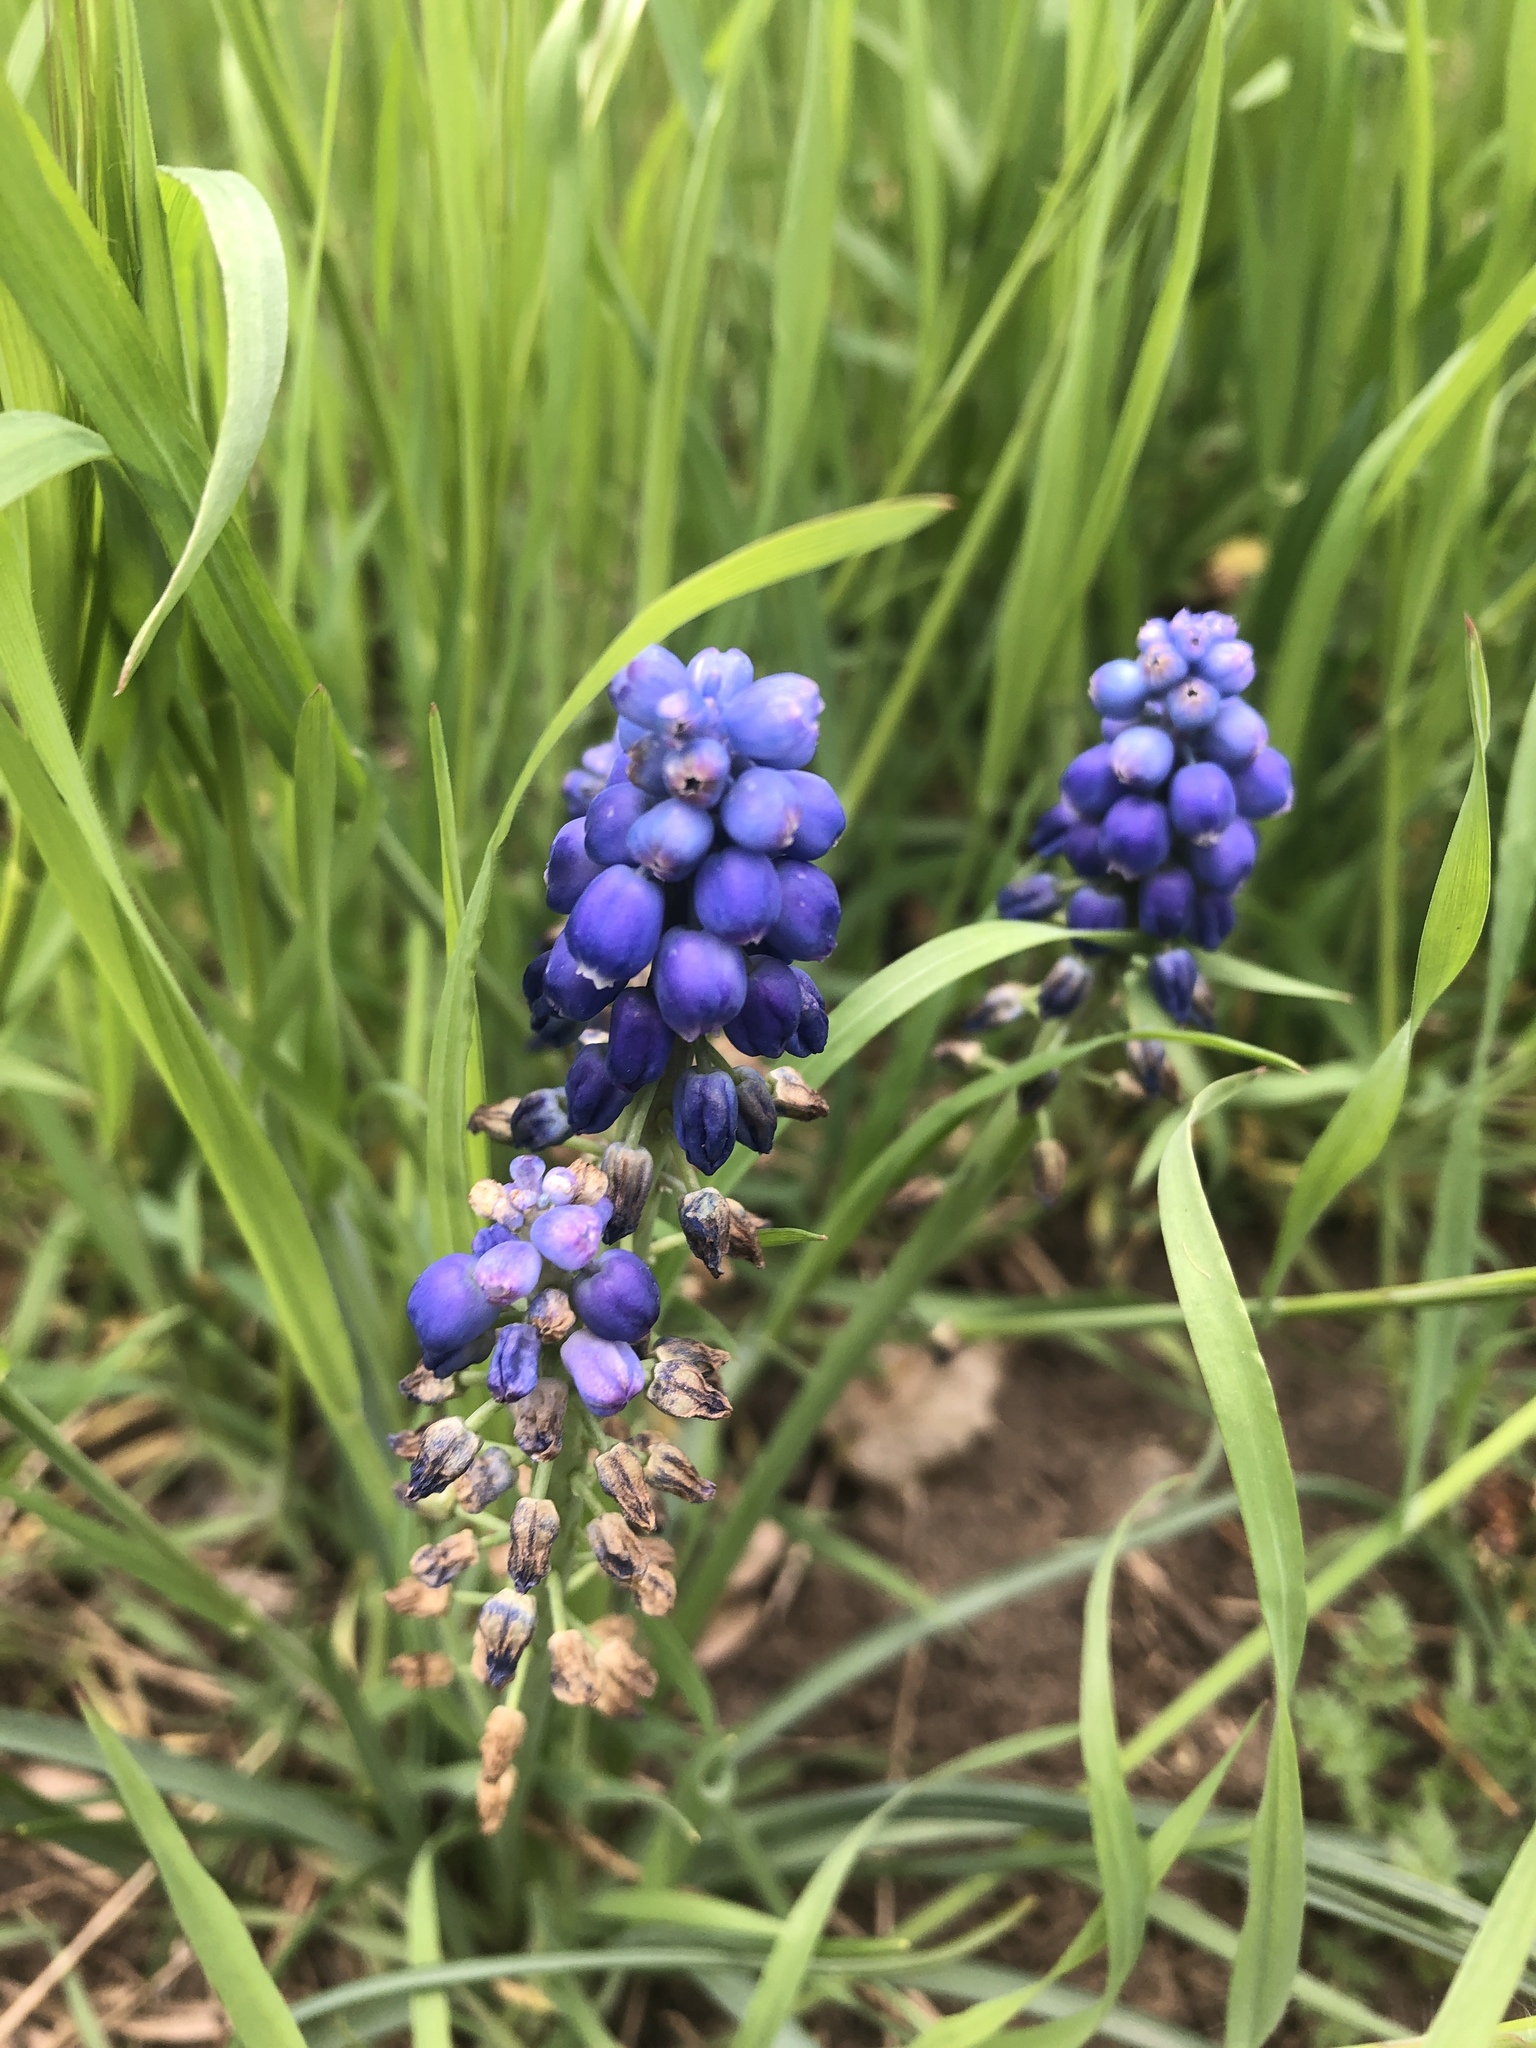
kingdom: Plantae
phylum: Tracheophyta
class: Liliopsida
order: Asparagales
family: Asparagaceae
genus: Muscari
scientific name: Muscari neglectum
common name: Grape-hyacinth
